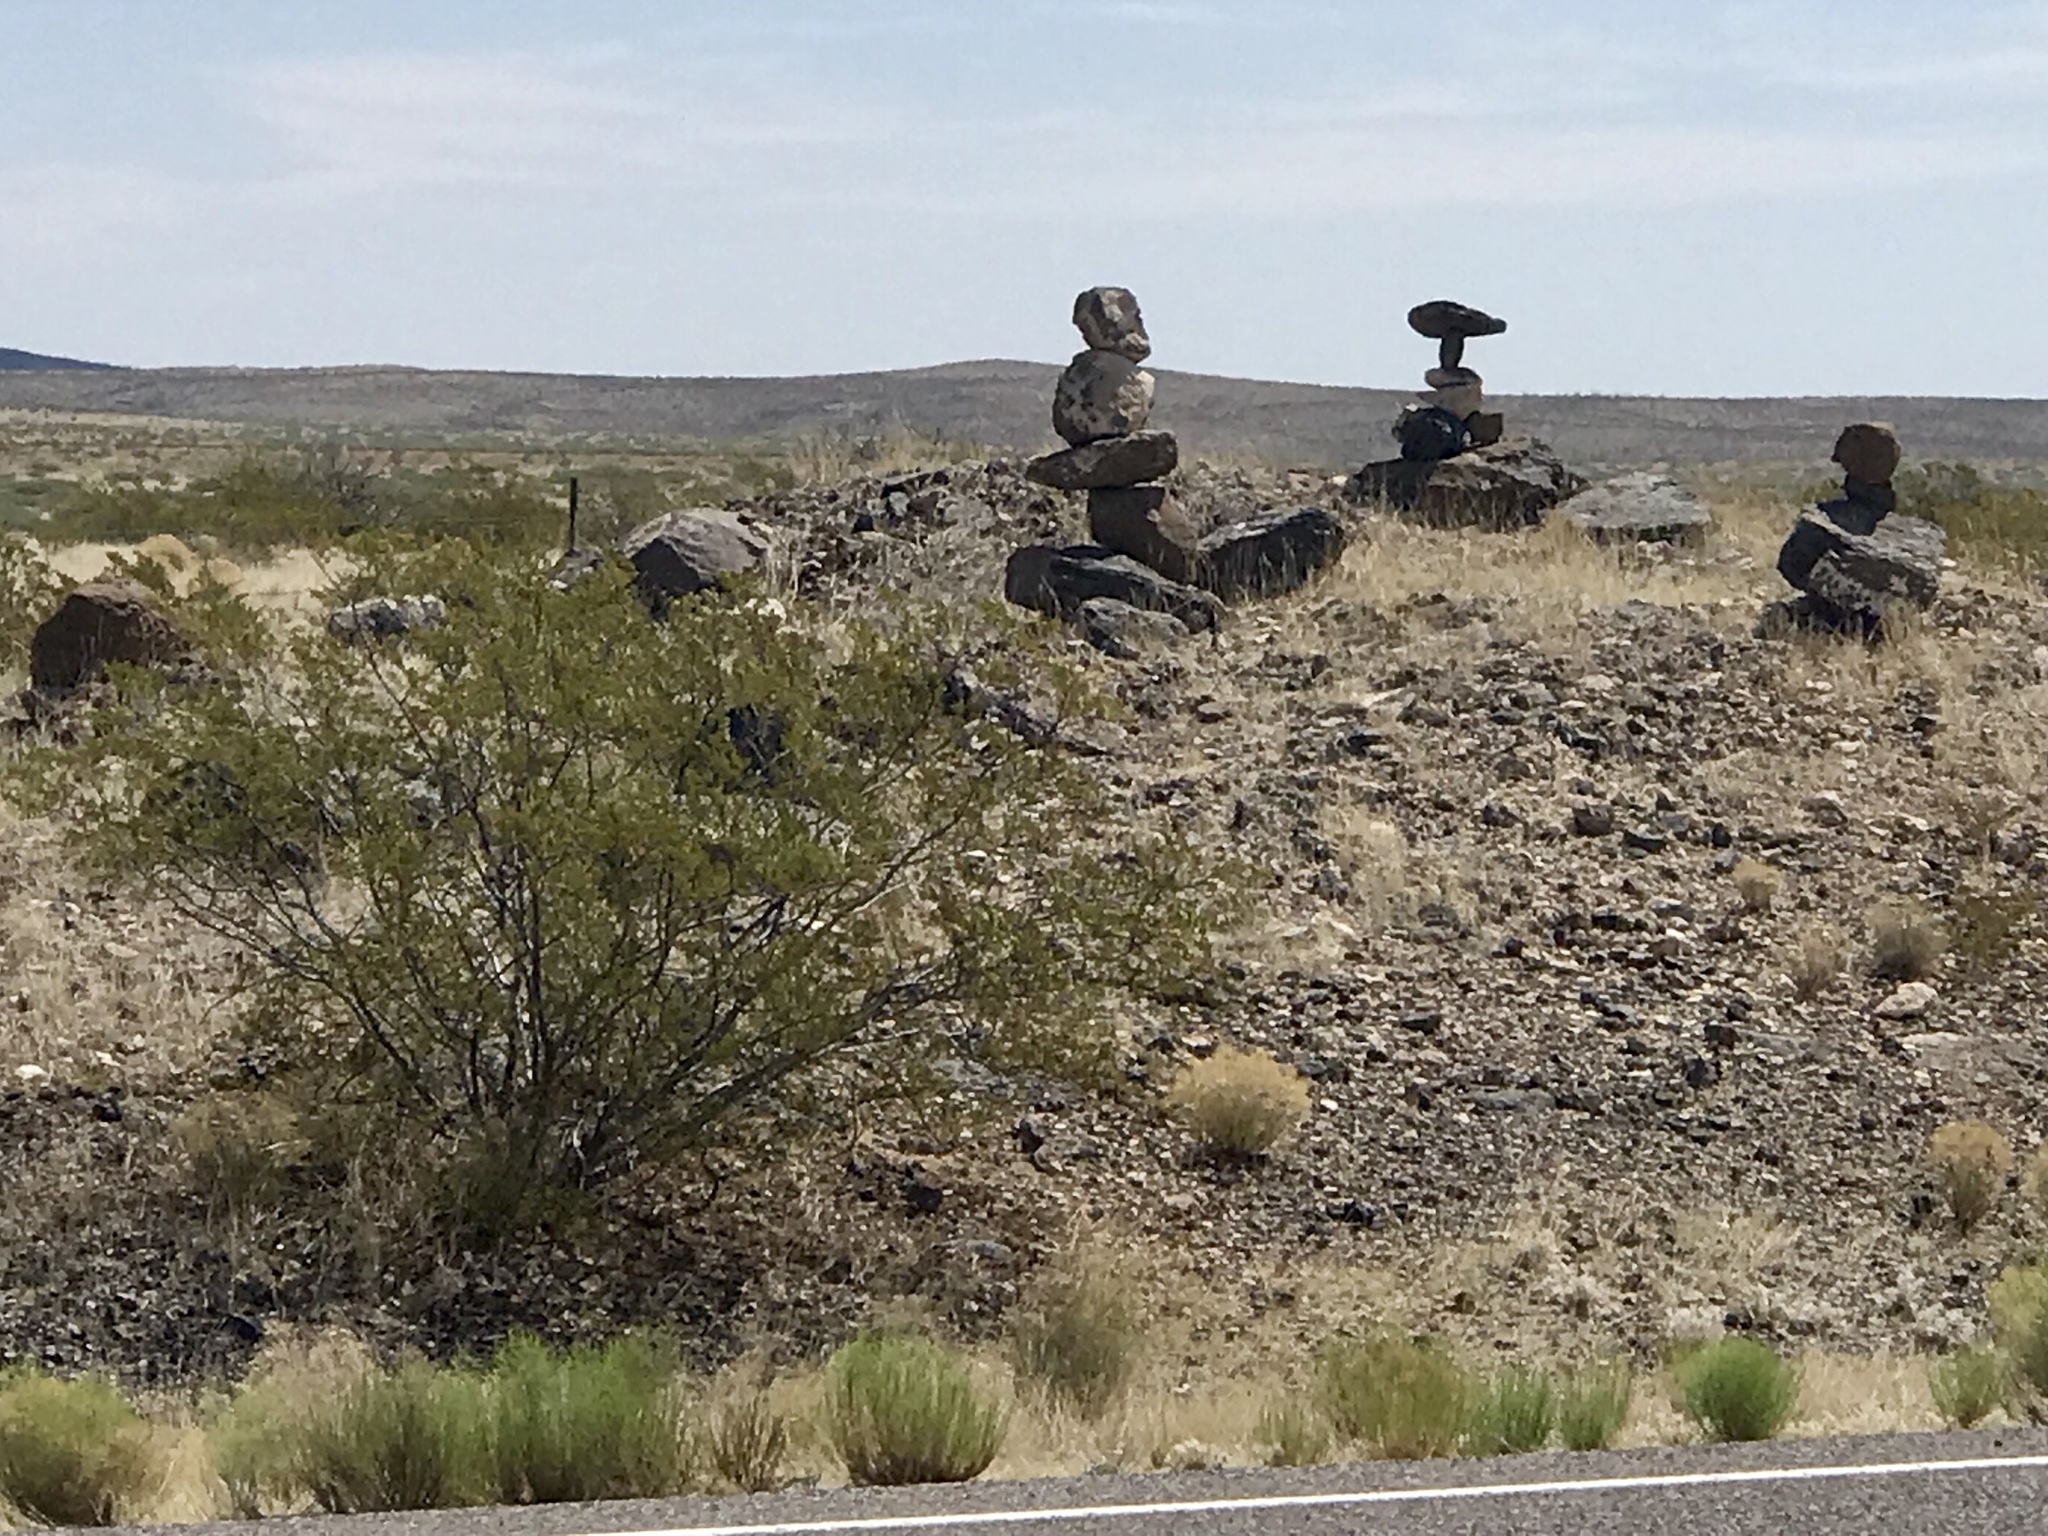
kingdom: Plantae
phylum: Tracheophyta
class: Magnoliopsida
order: Zygophyllales
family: Zygophyllaceae
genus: Larrea
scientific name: Larrea tridentata
